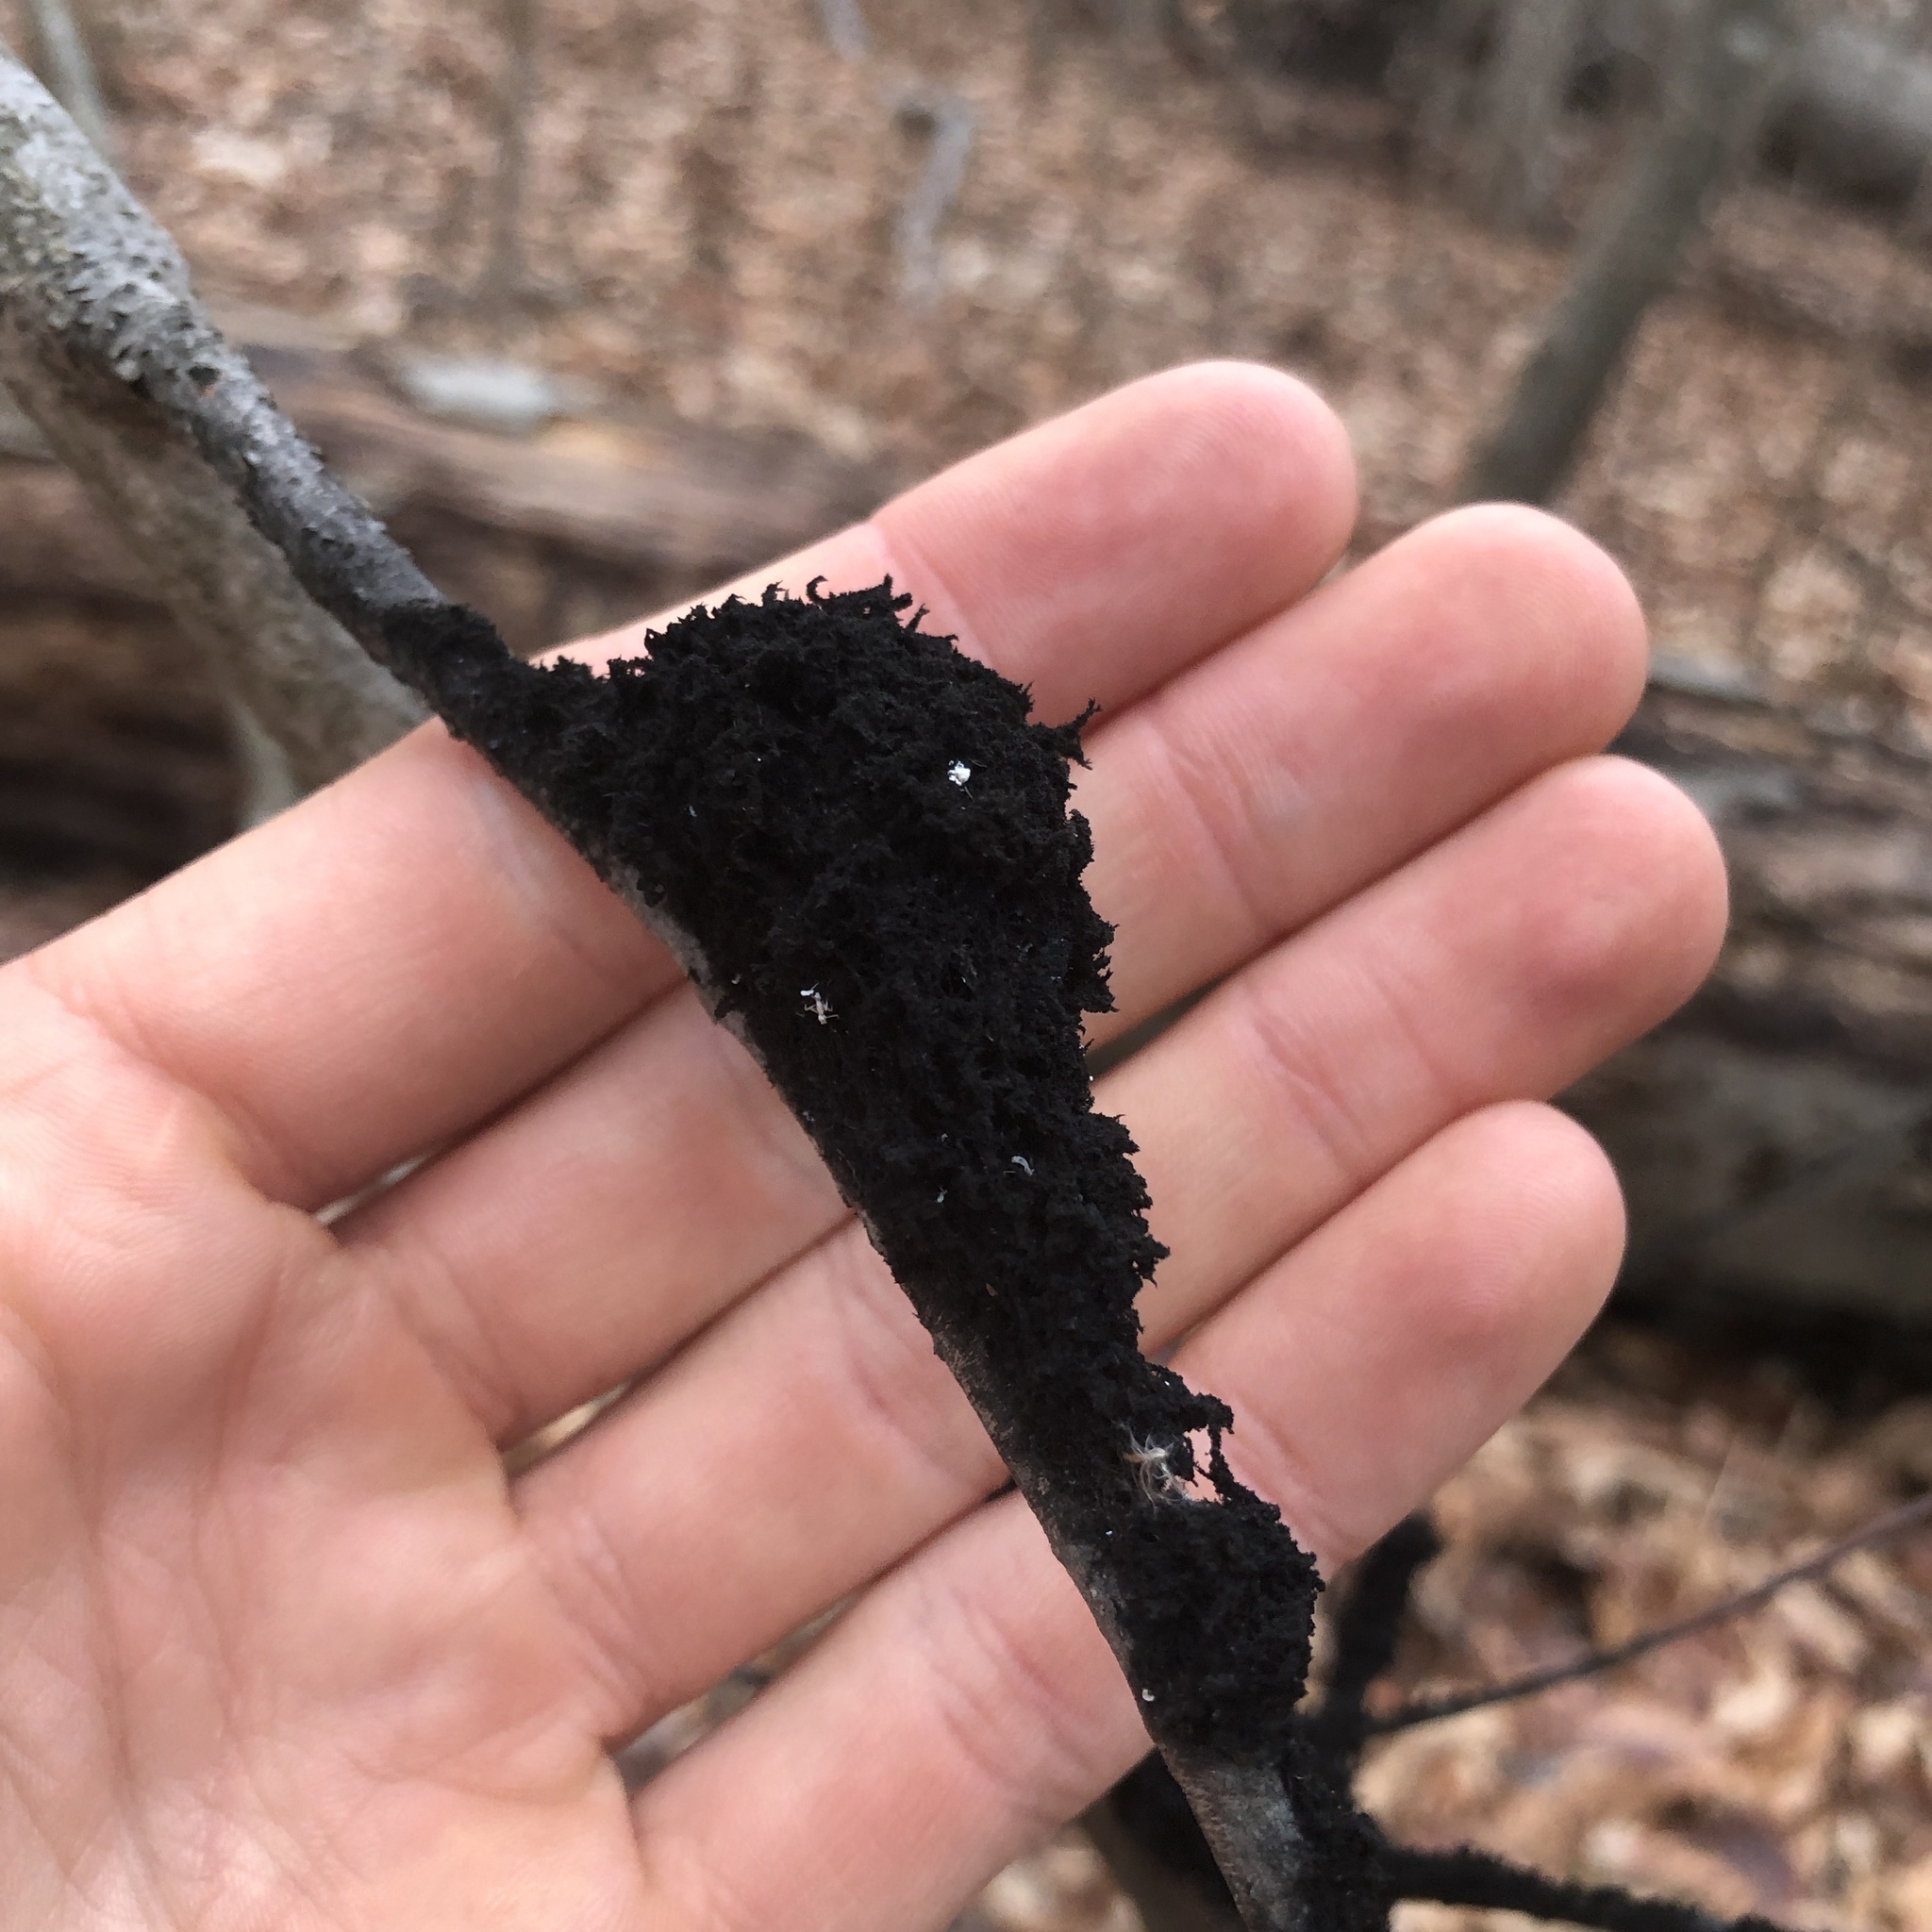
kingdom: Fungi
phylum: Ascomycota
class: Dothideomycetes
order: Capnodiales
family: Capnodiaceae
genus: Scorias
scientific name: Scorias spongiosa
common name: Black sooty mold
